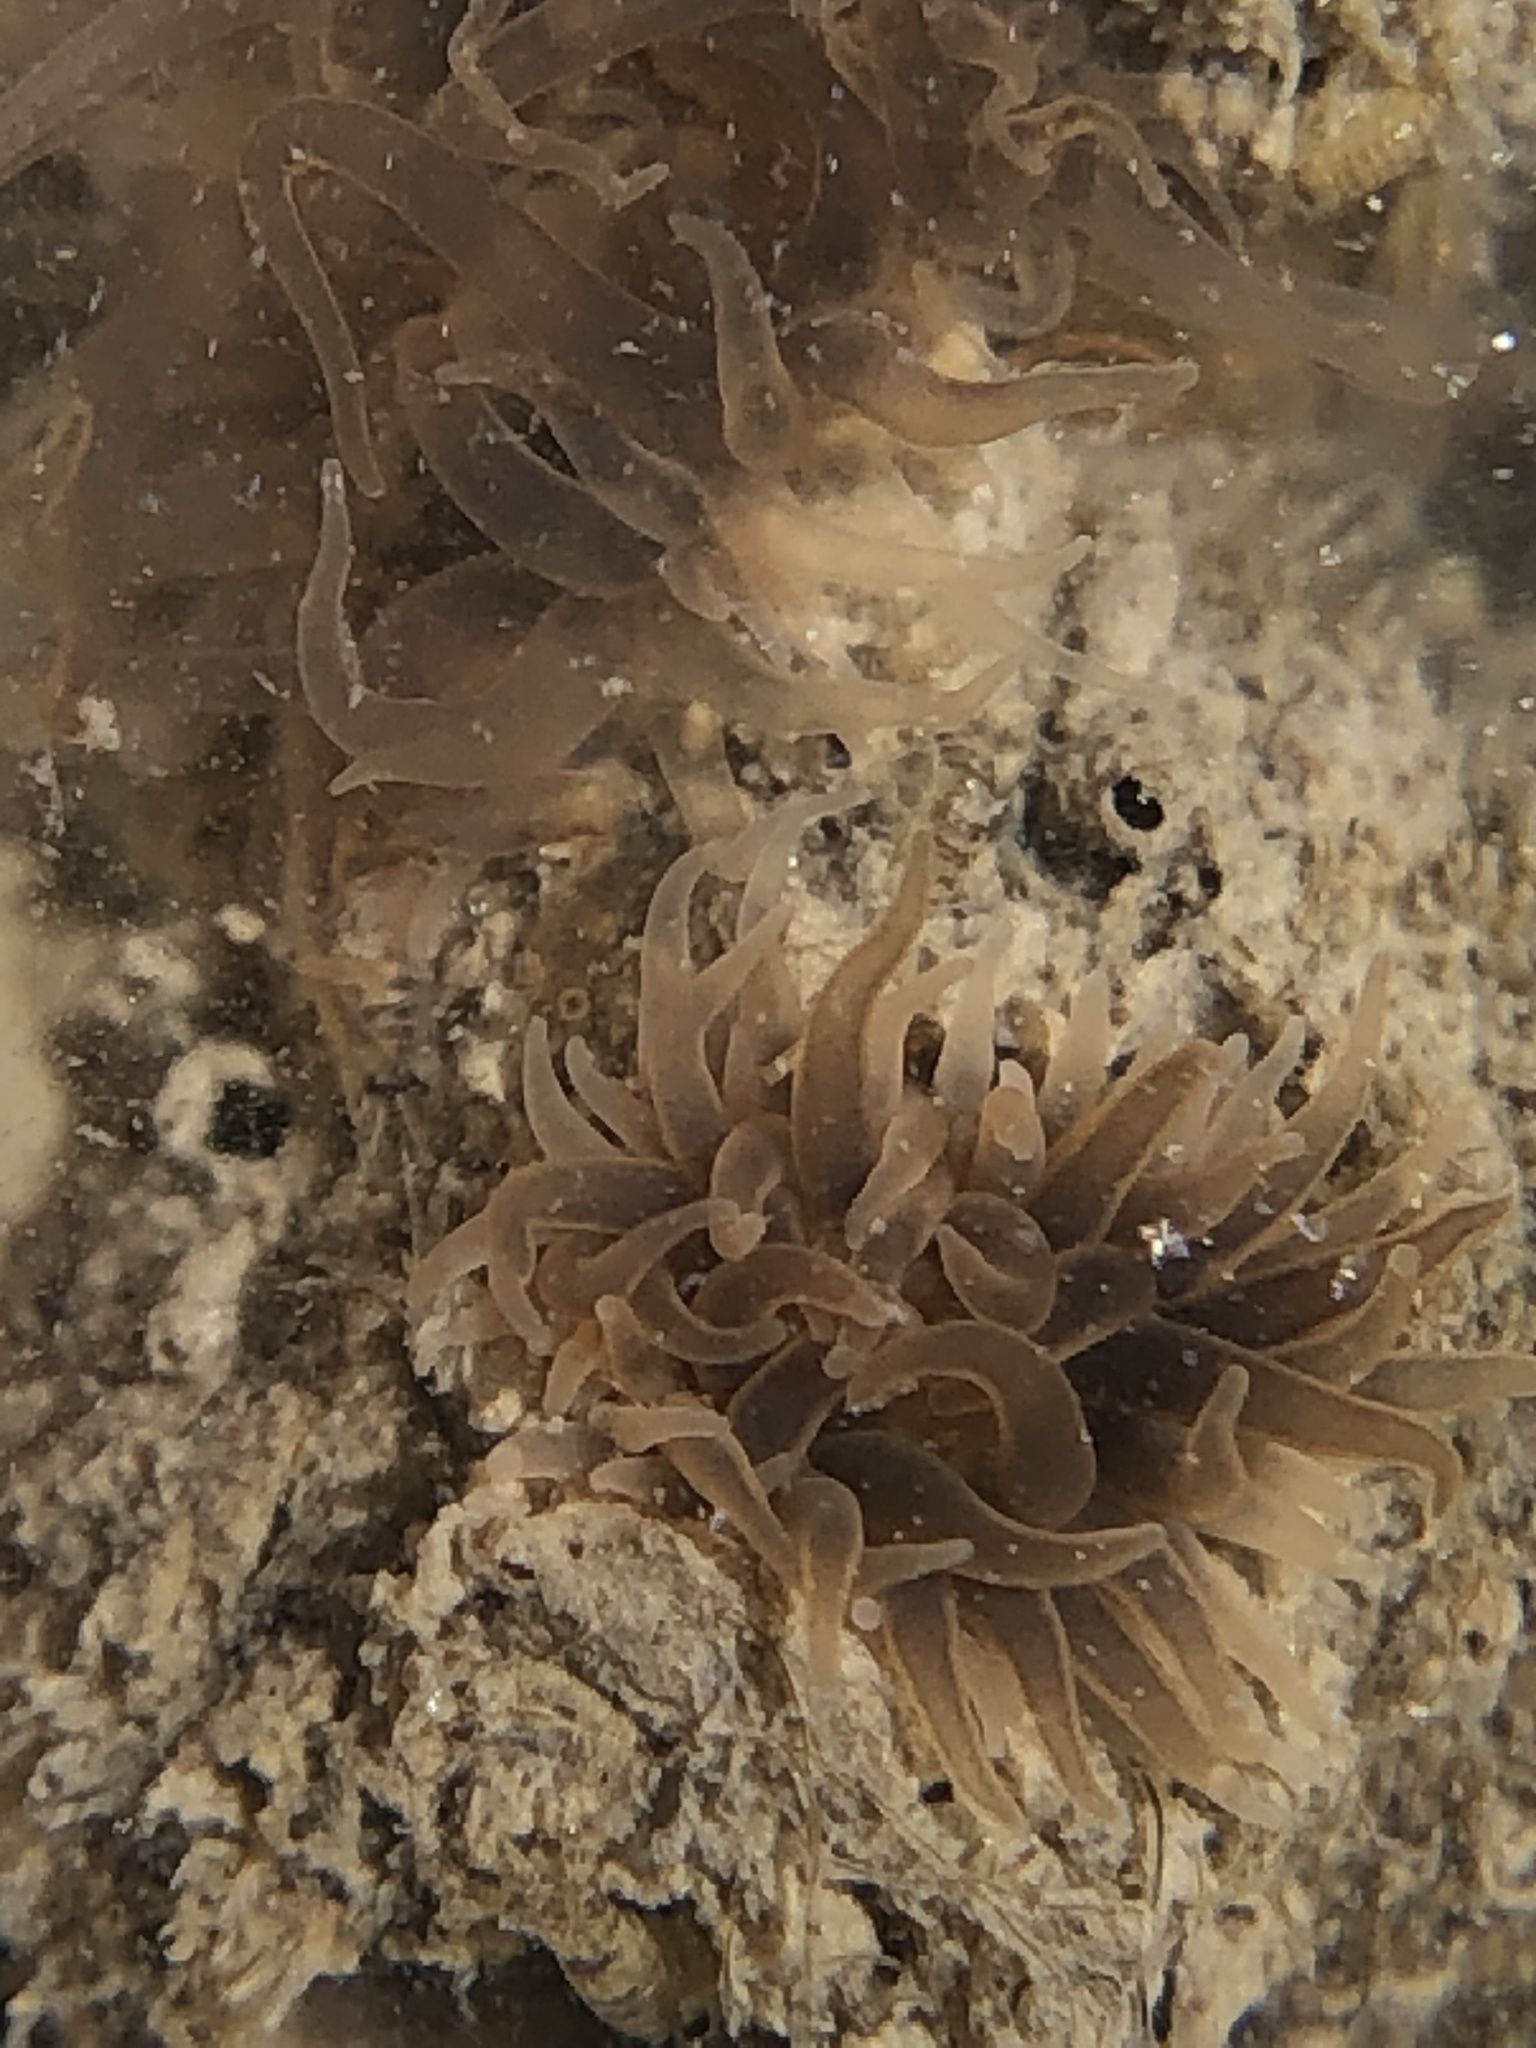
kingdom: Animalia
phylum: Cnidaria
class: Anthozoa
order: Actiniaria
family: Diadumenidae
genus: Diadumene
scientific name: Diadumene lineata
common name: Orange-striped anemone
